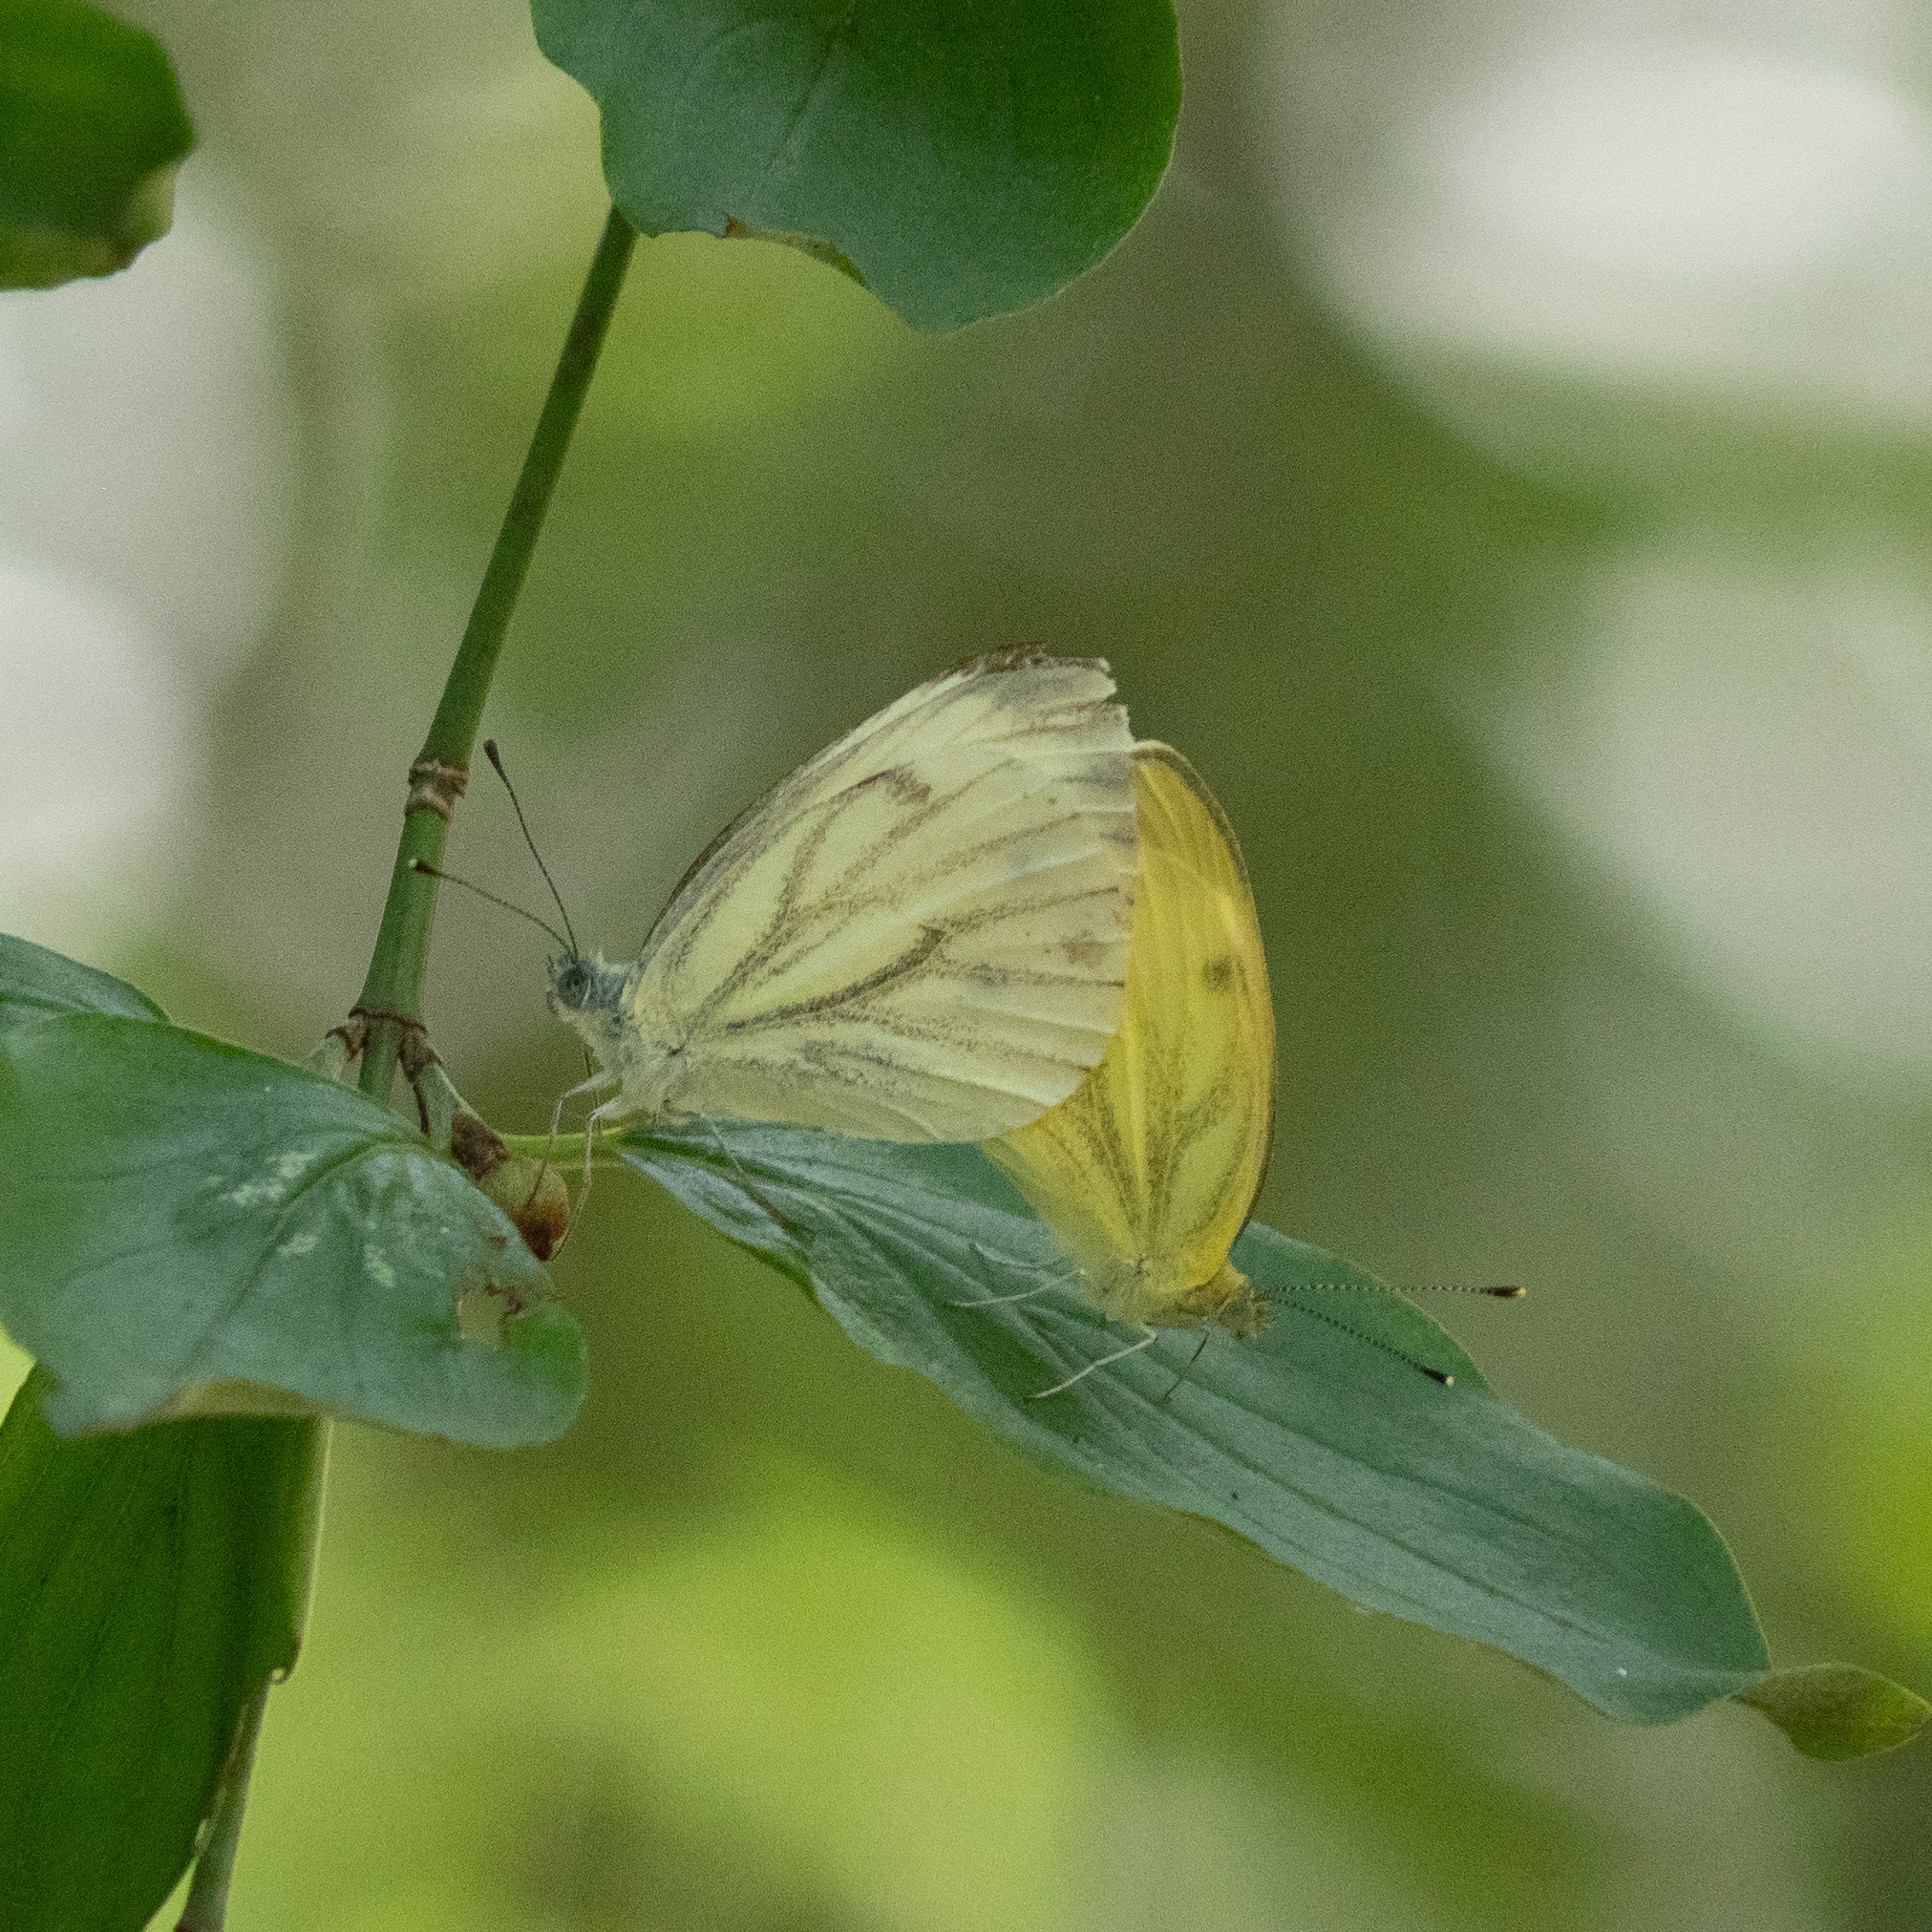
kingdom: Animalia
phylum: Arthropoda
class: Insecta
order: Lepidoptera
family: Pieridae
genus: Pieris
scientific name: Pieris napi
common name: Green-veined white
